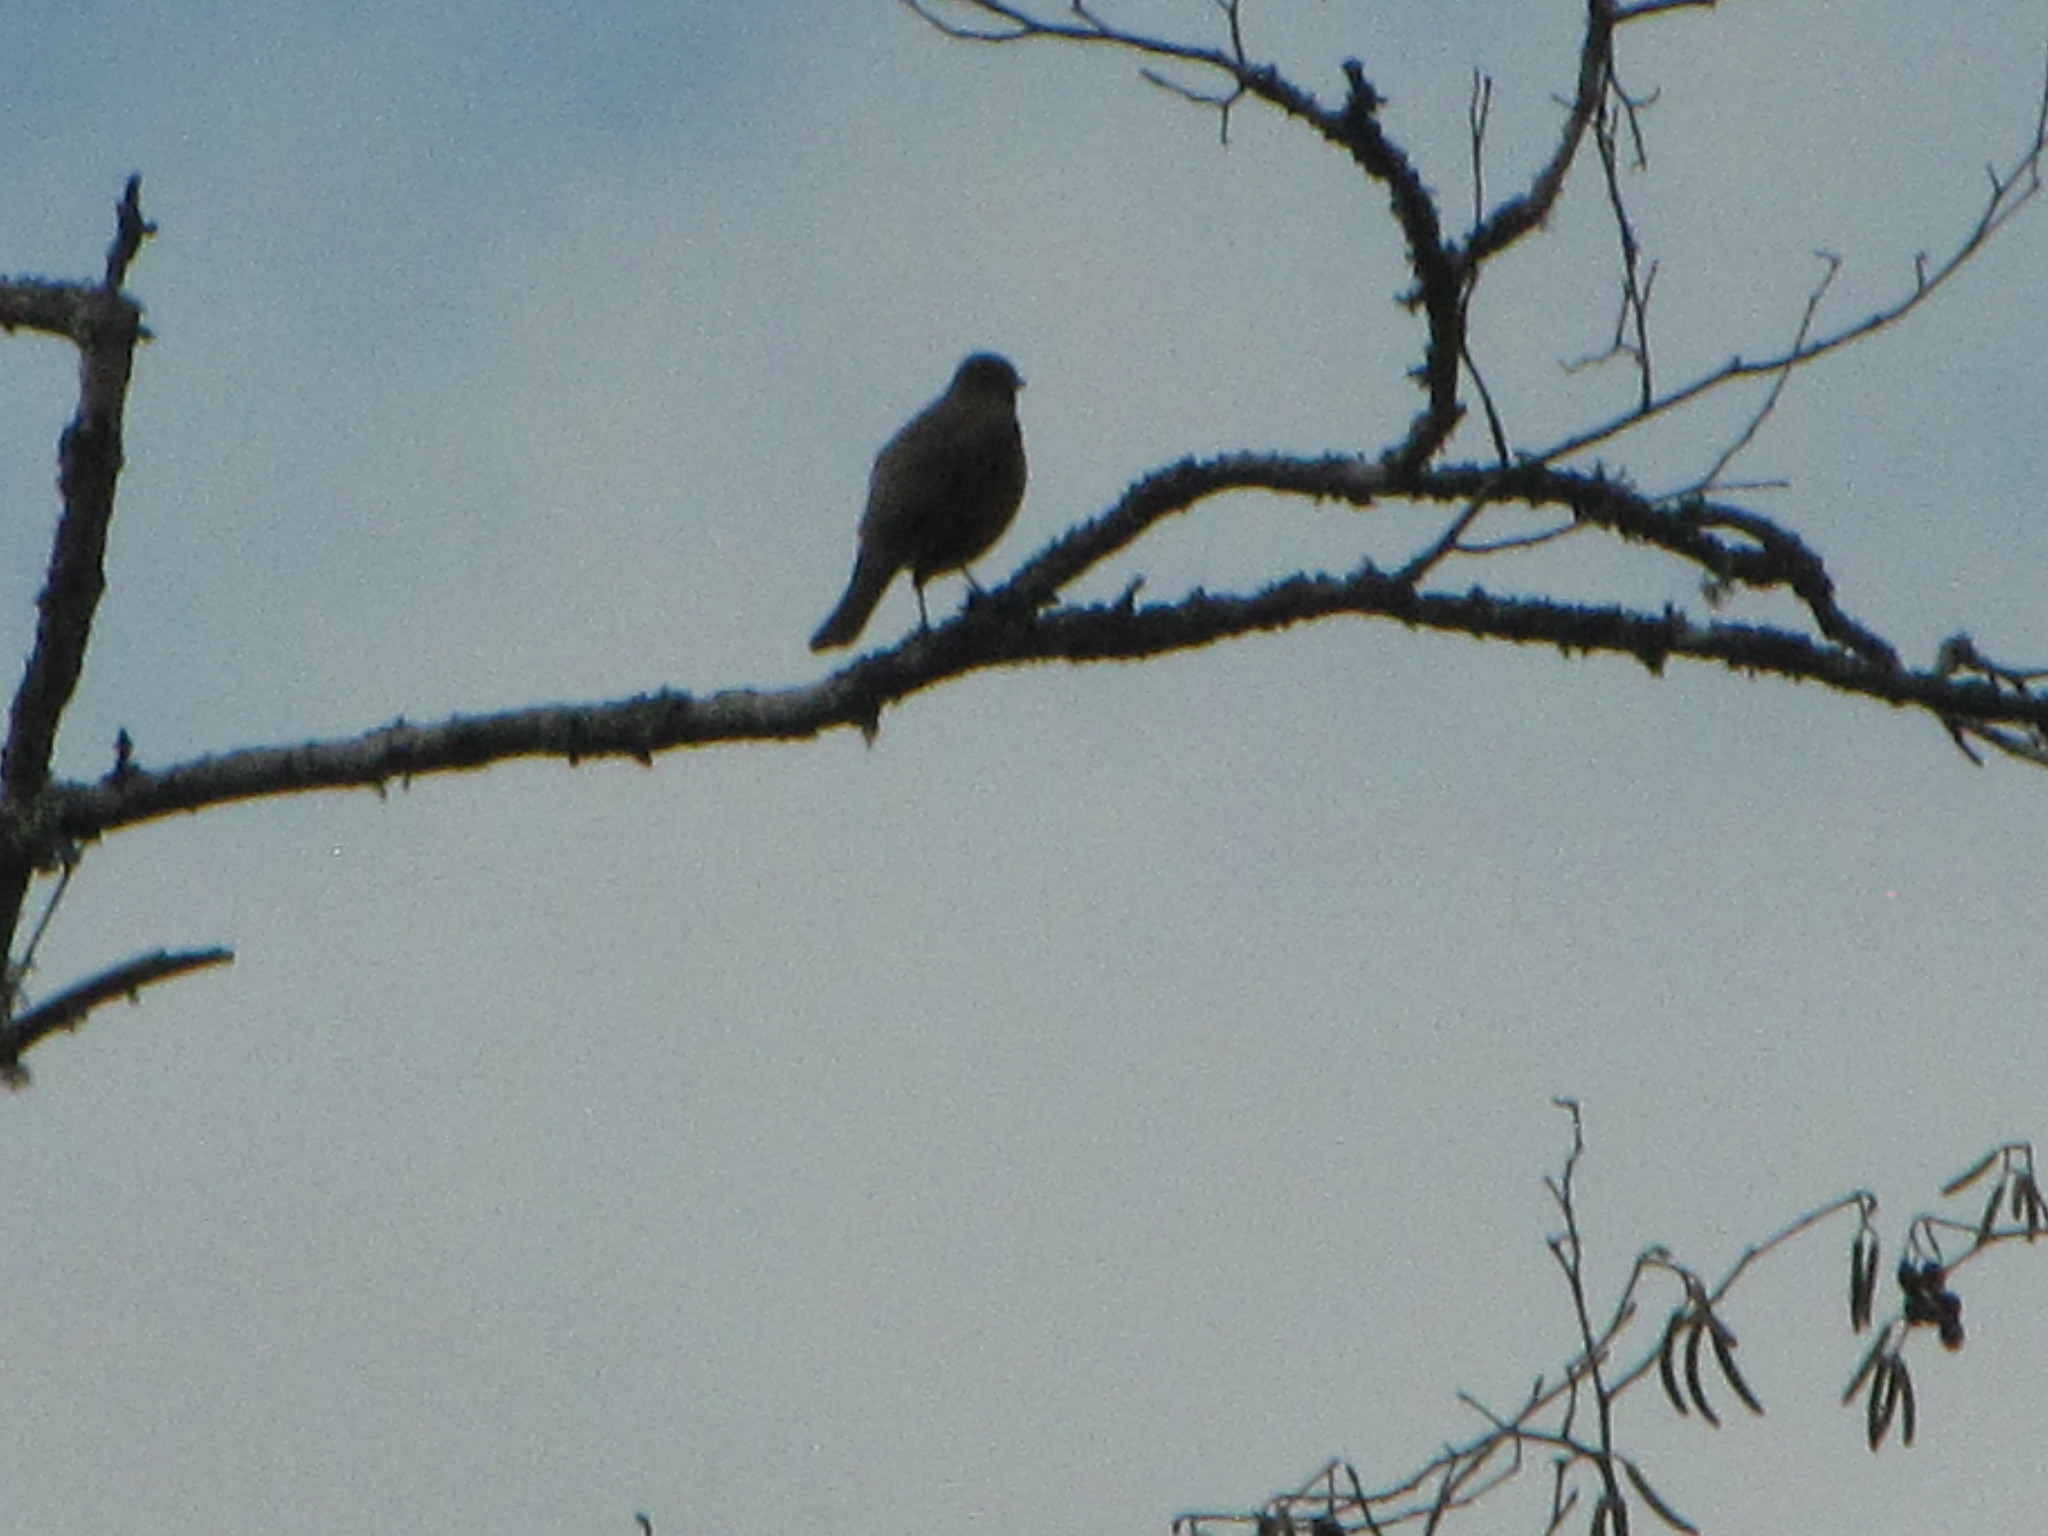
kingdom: Animalia
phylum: Chordata
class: Aves
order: Passeriformes
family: Turdidae
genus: Turdus
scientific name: Turdus migratorius
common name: American robin
